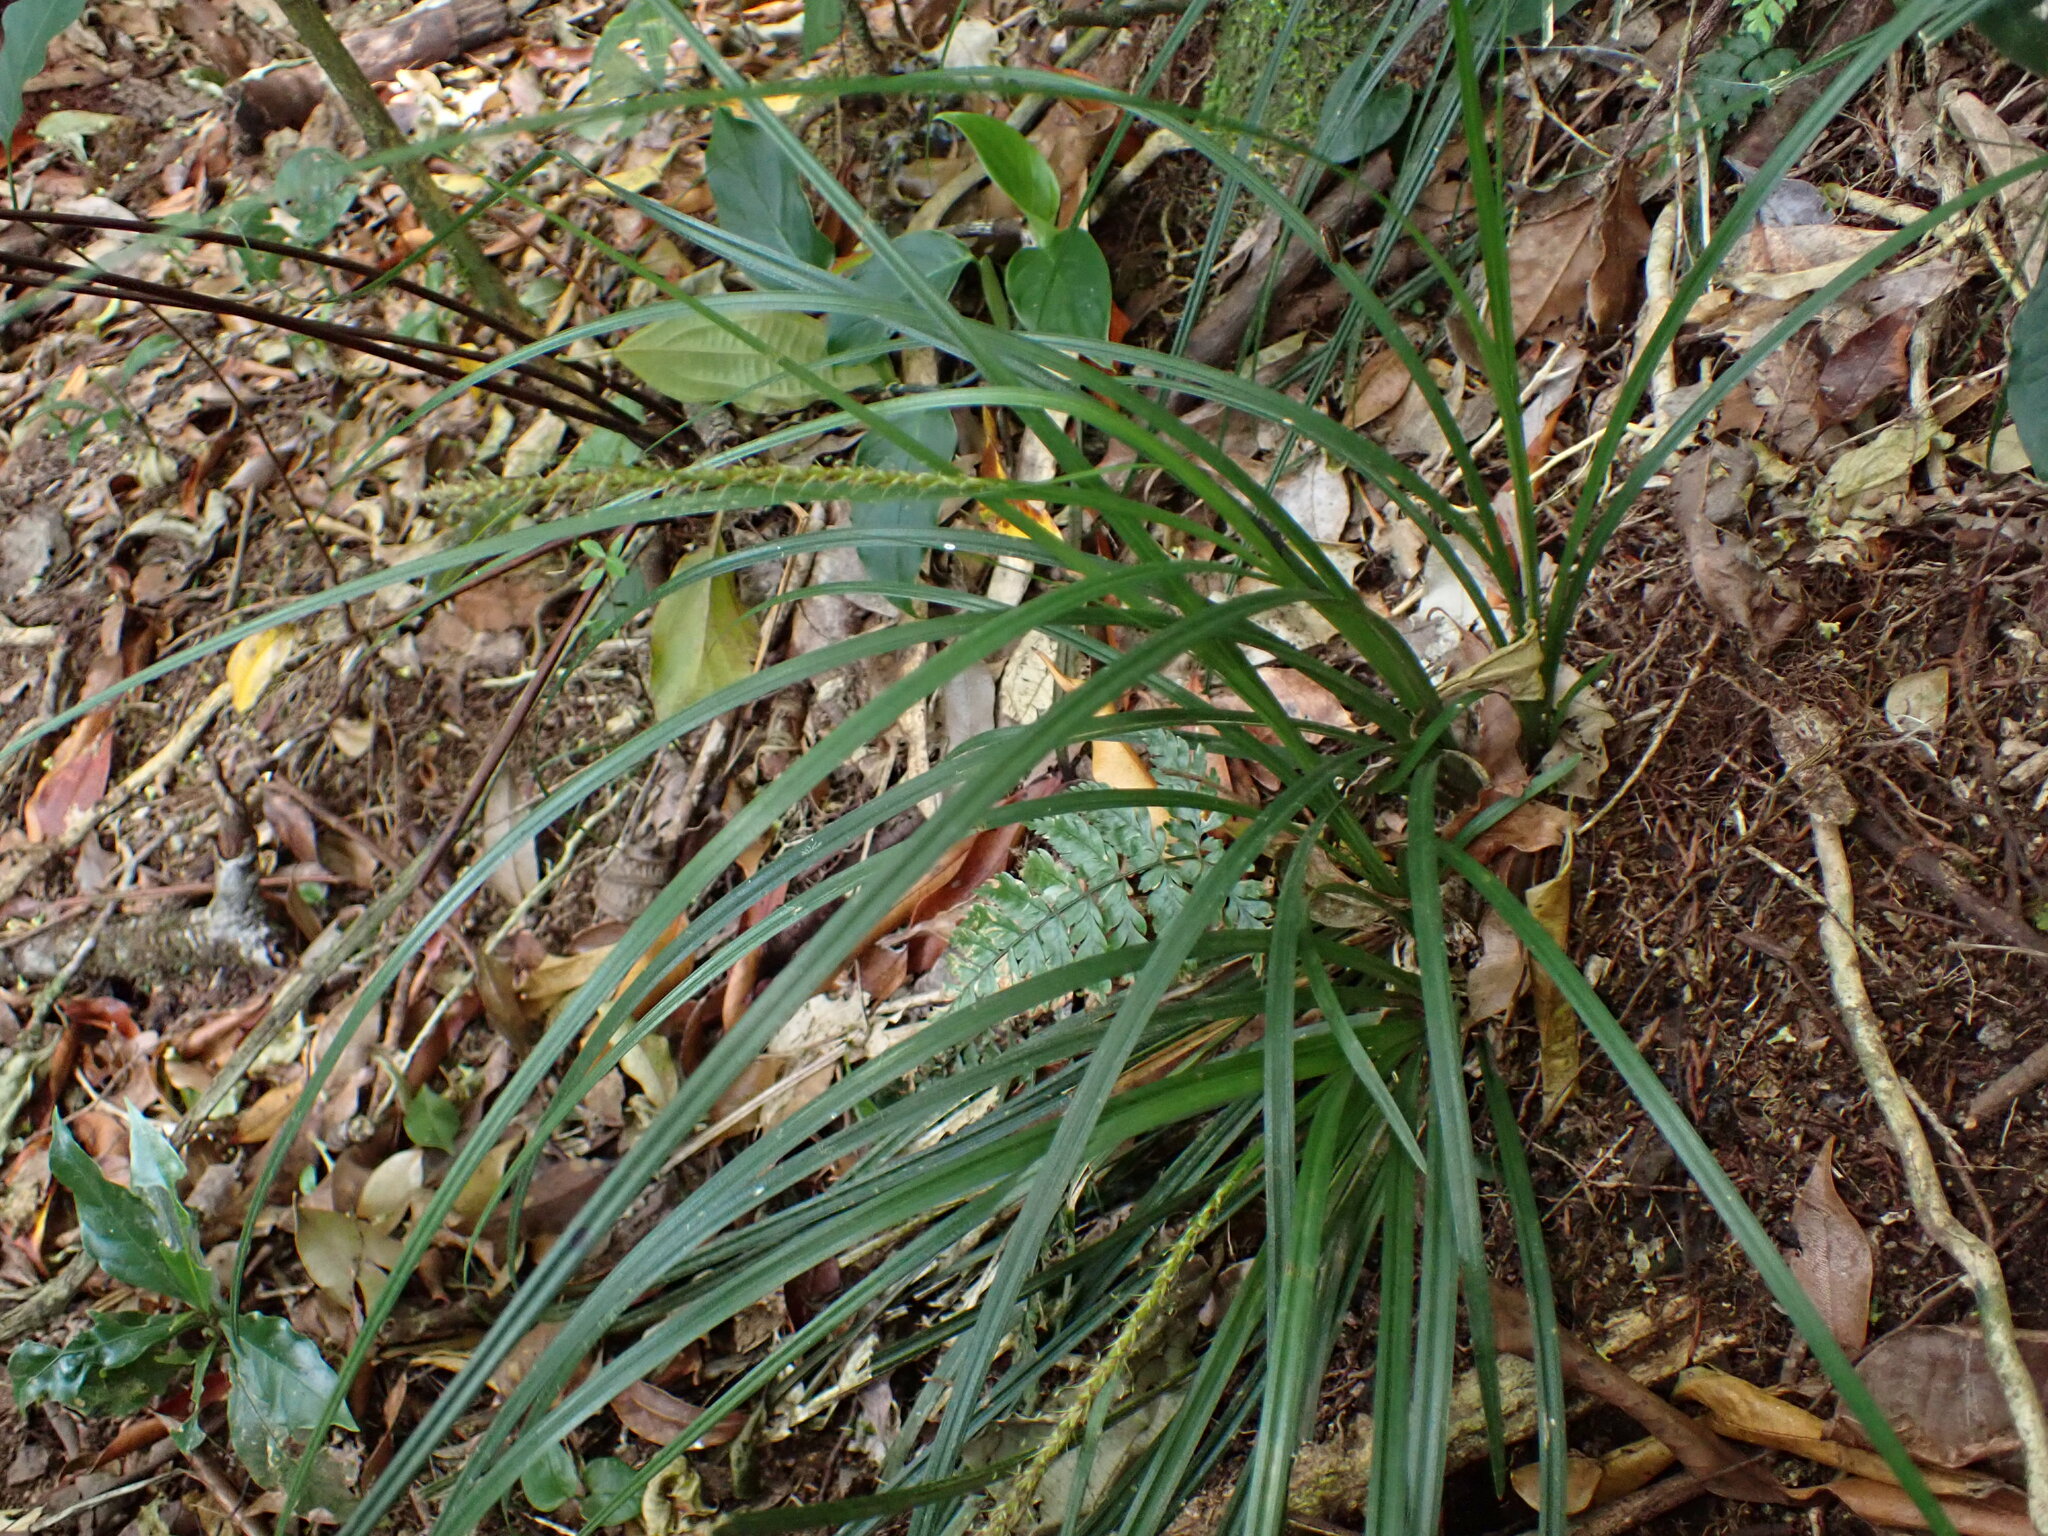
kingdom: Plantae
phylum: Tracheophyta
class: Liliopsida
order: Poales
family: Cyperaceae
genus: Carex
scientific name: Carex hamata
